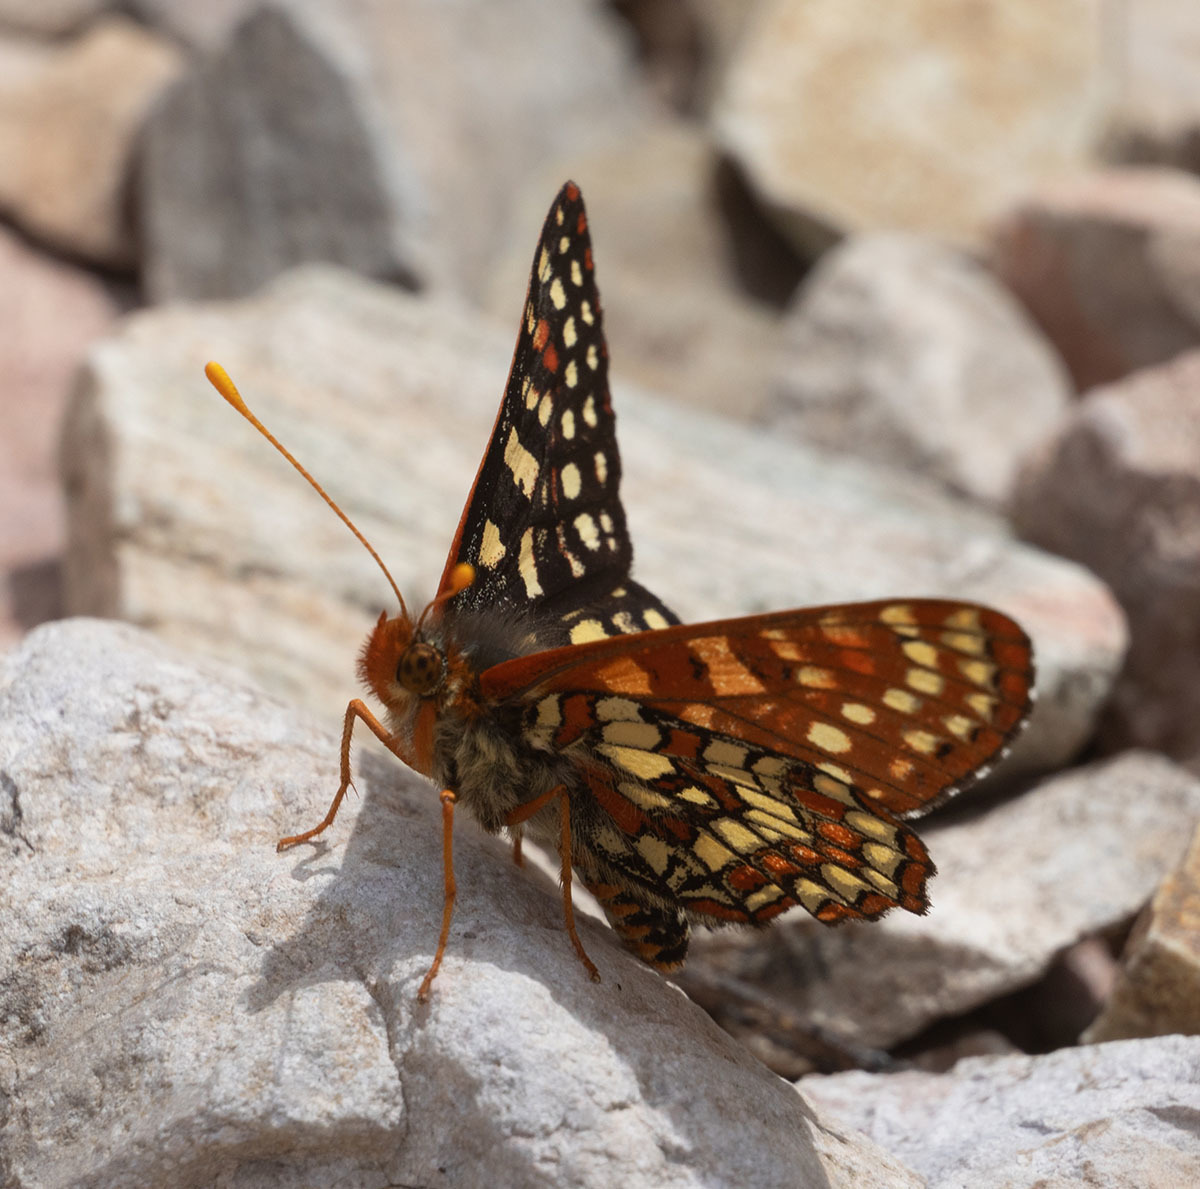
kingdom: Animalia
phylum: Arthropoda
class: Insecta
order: Lepidoptera
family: Nymphalidae
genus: Occidryas
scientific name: Occidryas chalcedona
